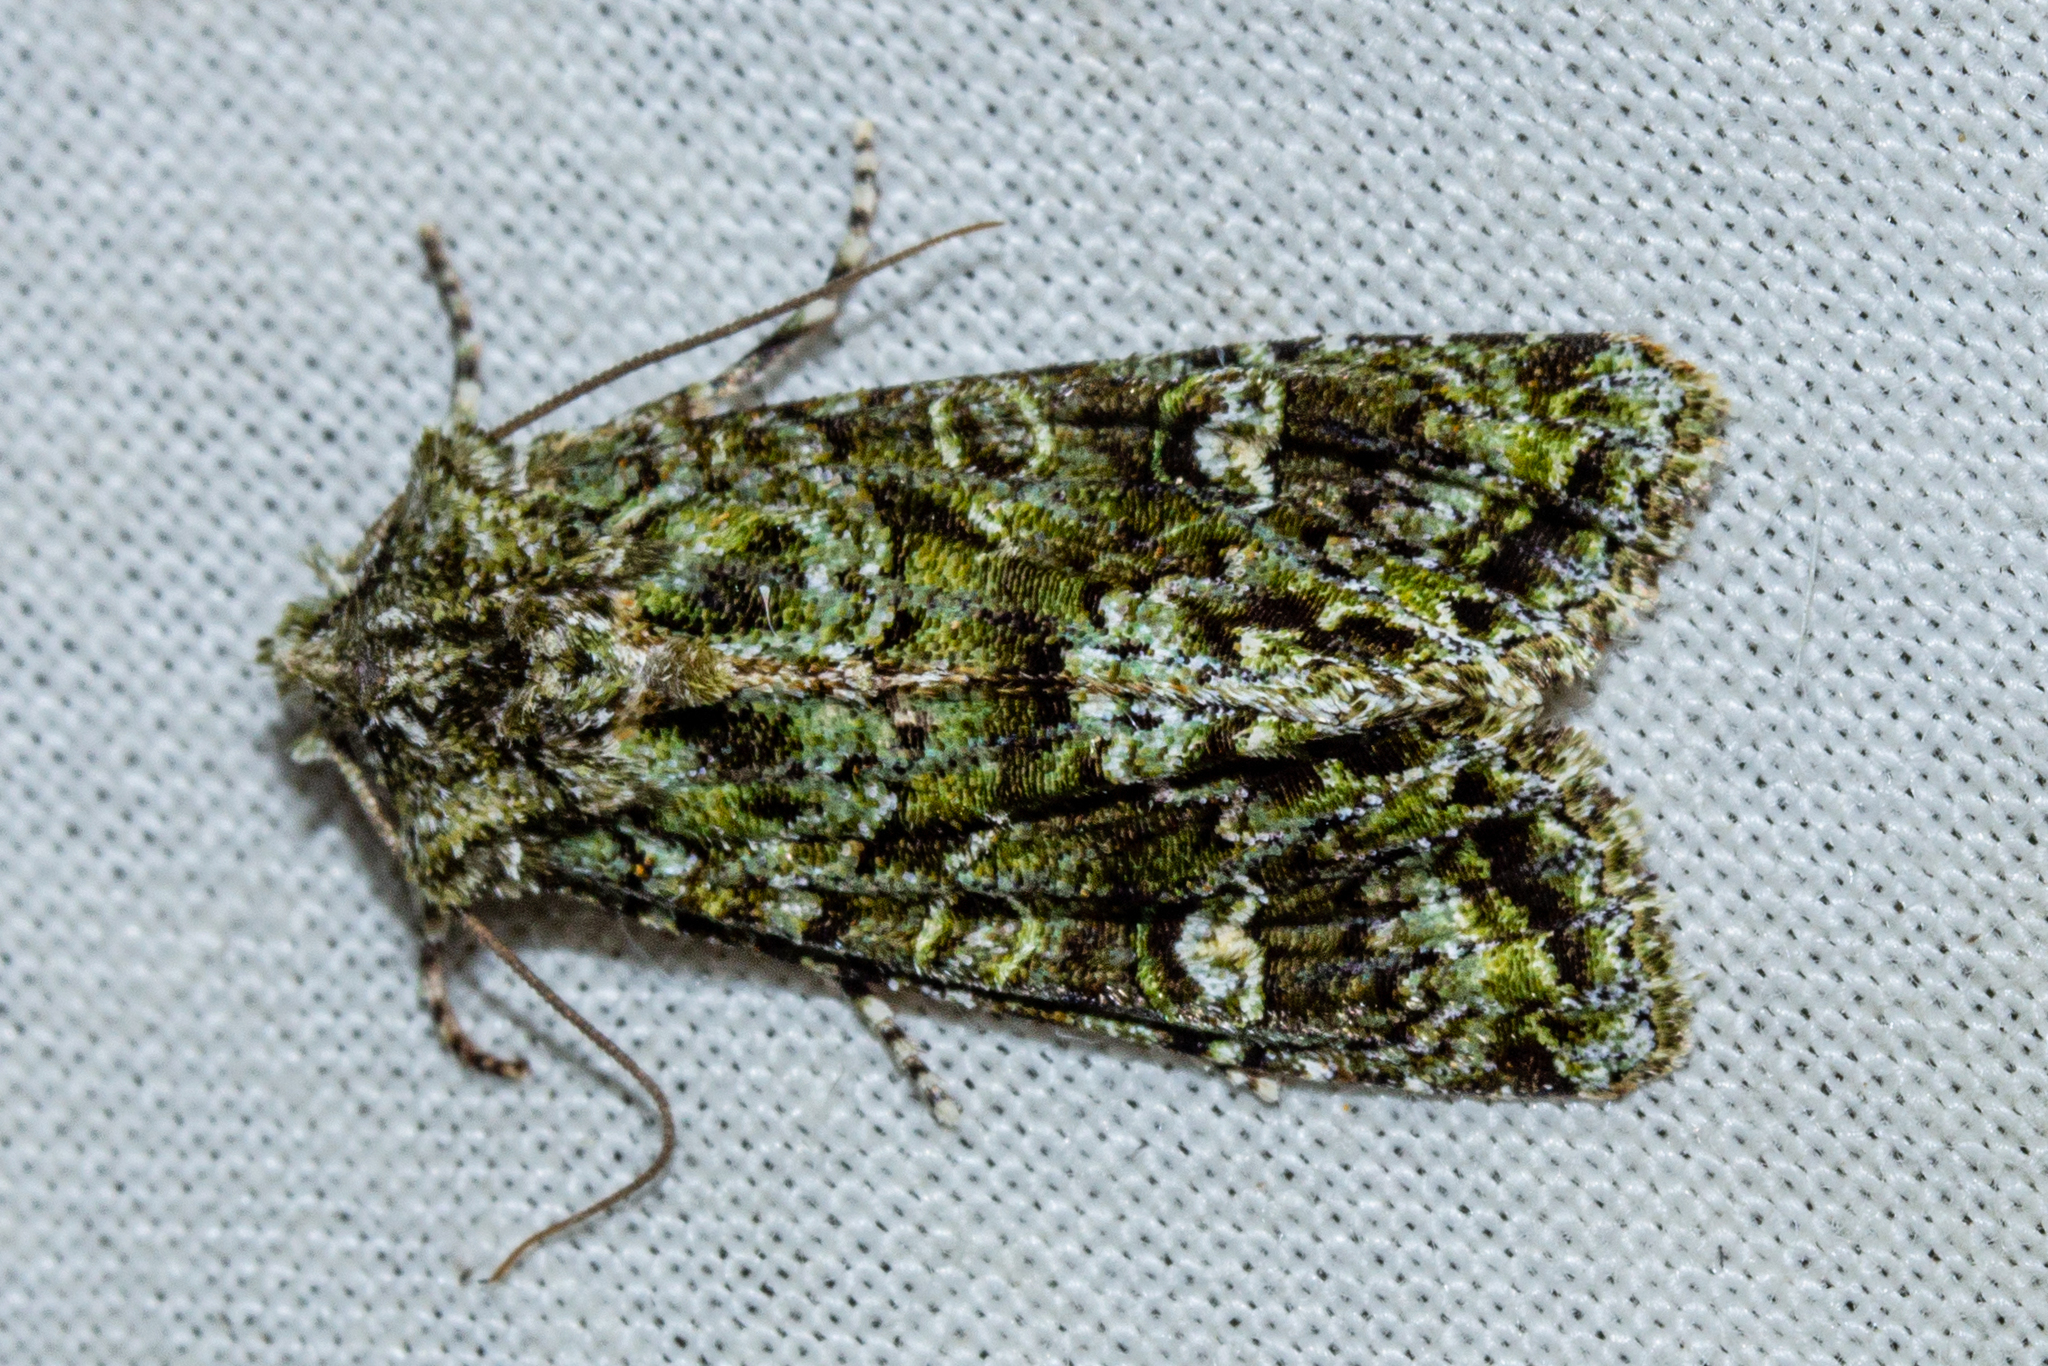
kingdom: Animalia
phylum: Arthropoda
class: Insecta
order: Lepidoptera
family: Noctuidae
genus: Ichneutica
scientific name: Ichneutica
